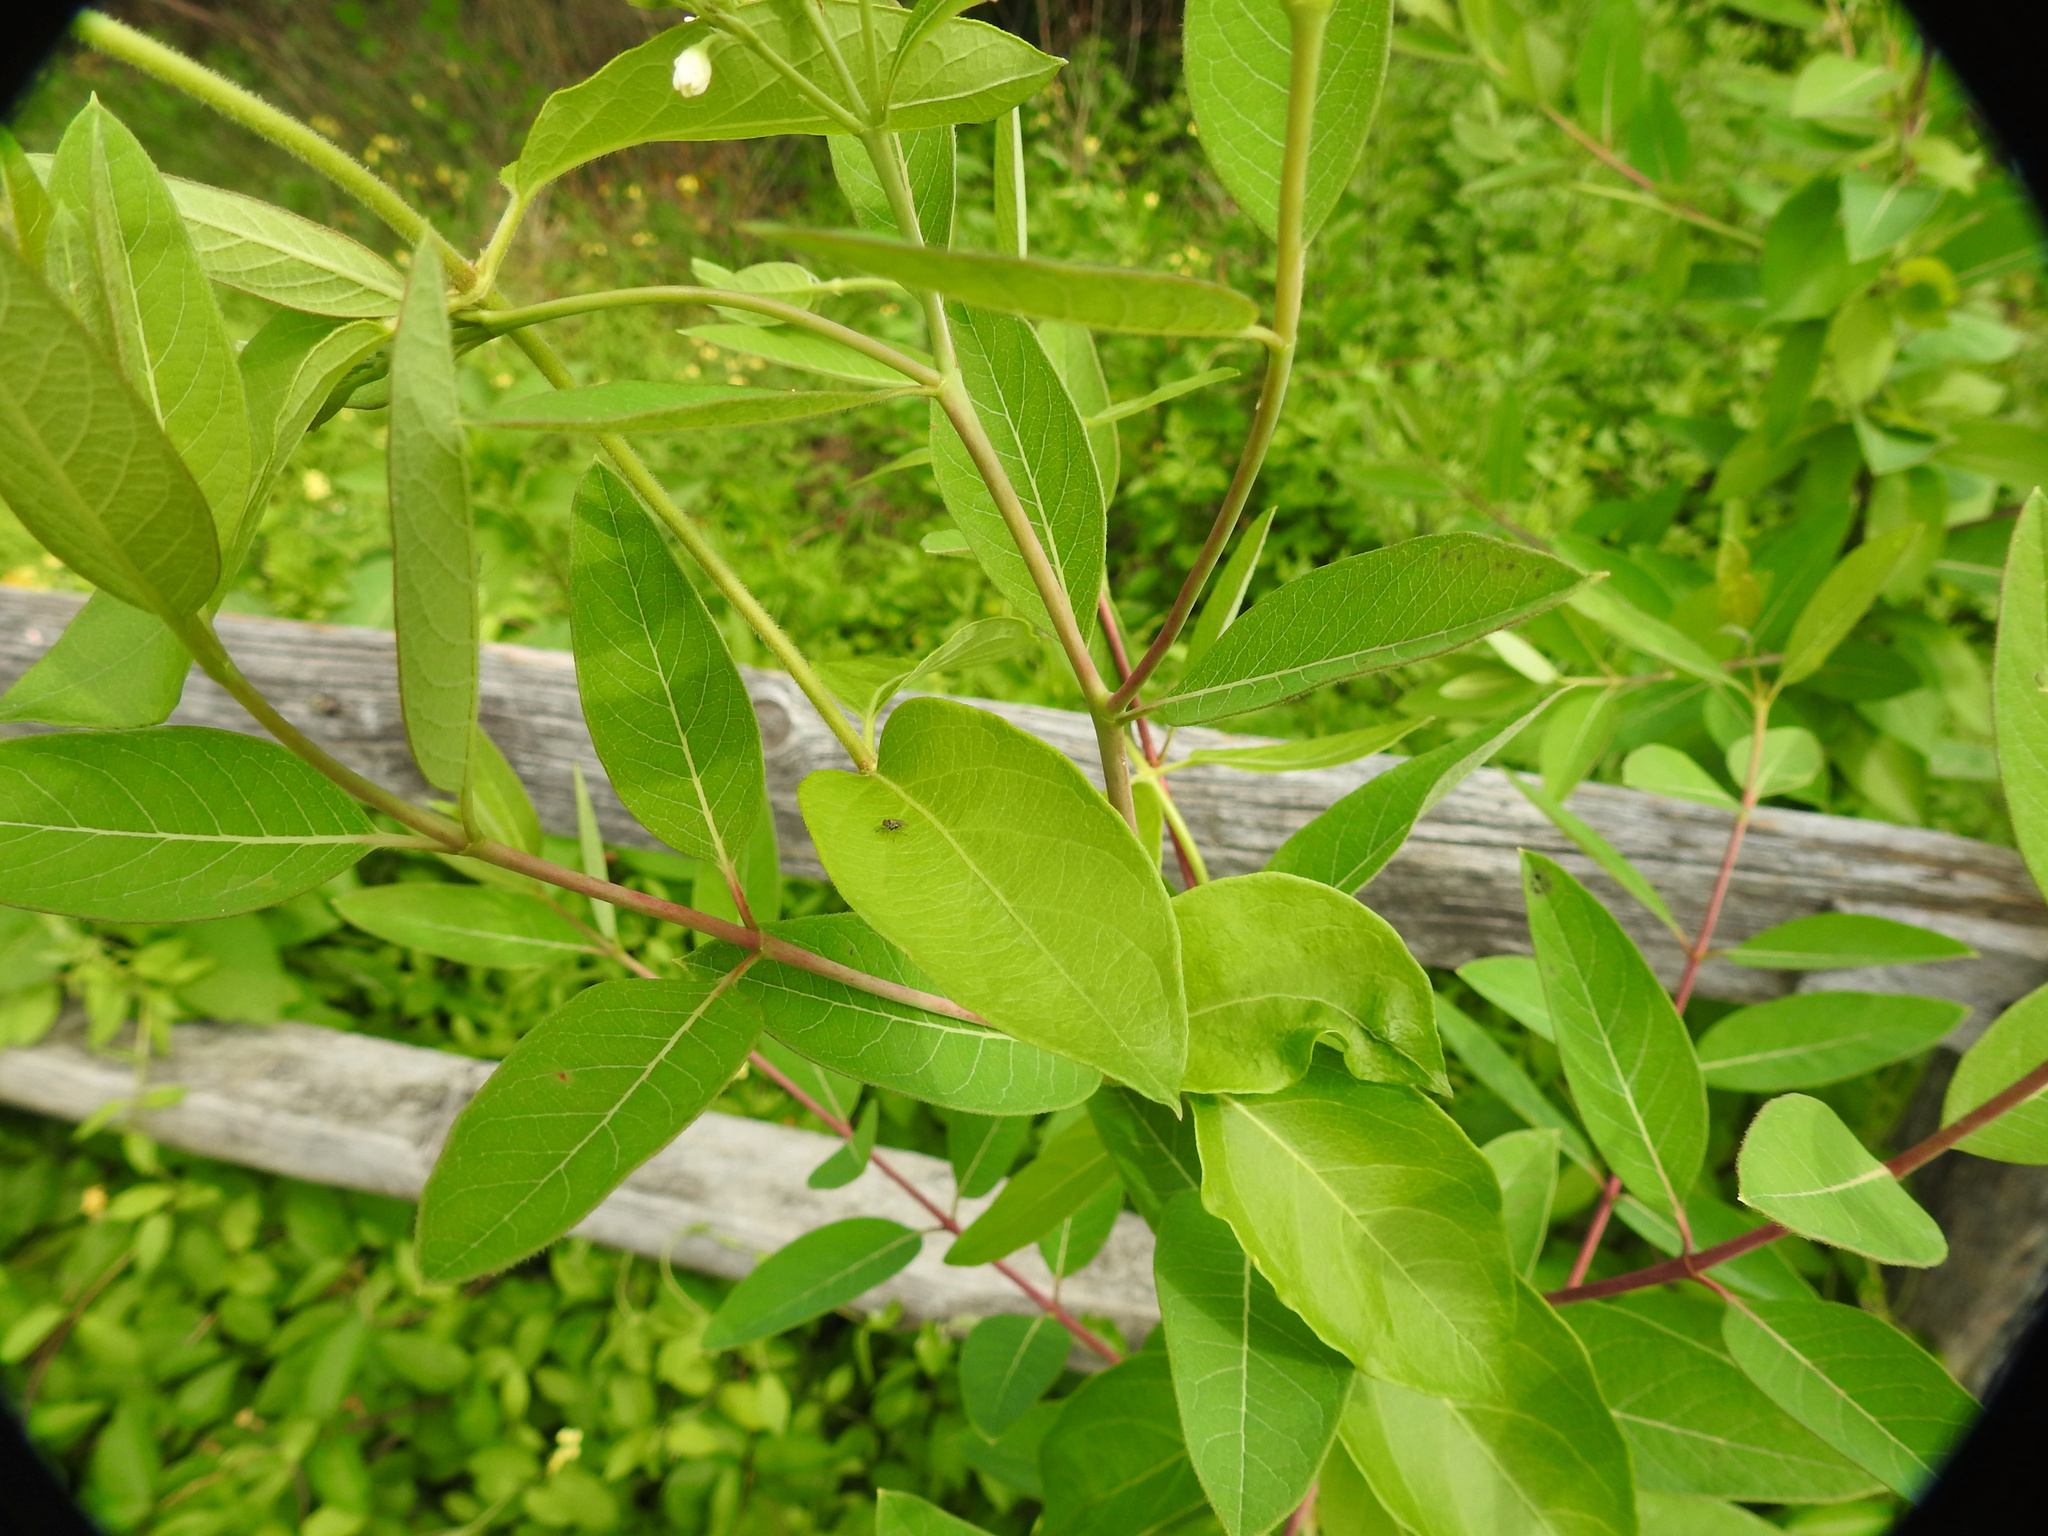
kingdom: Plantae
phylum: Tracheophyta
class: Magnoliopsida
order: Gentianales
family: Apocynaceae
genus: Apocynum
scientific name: Apocynum cannabinum
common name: Hemp dogbane
